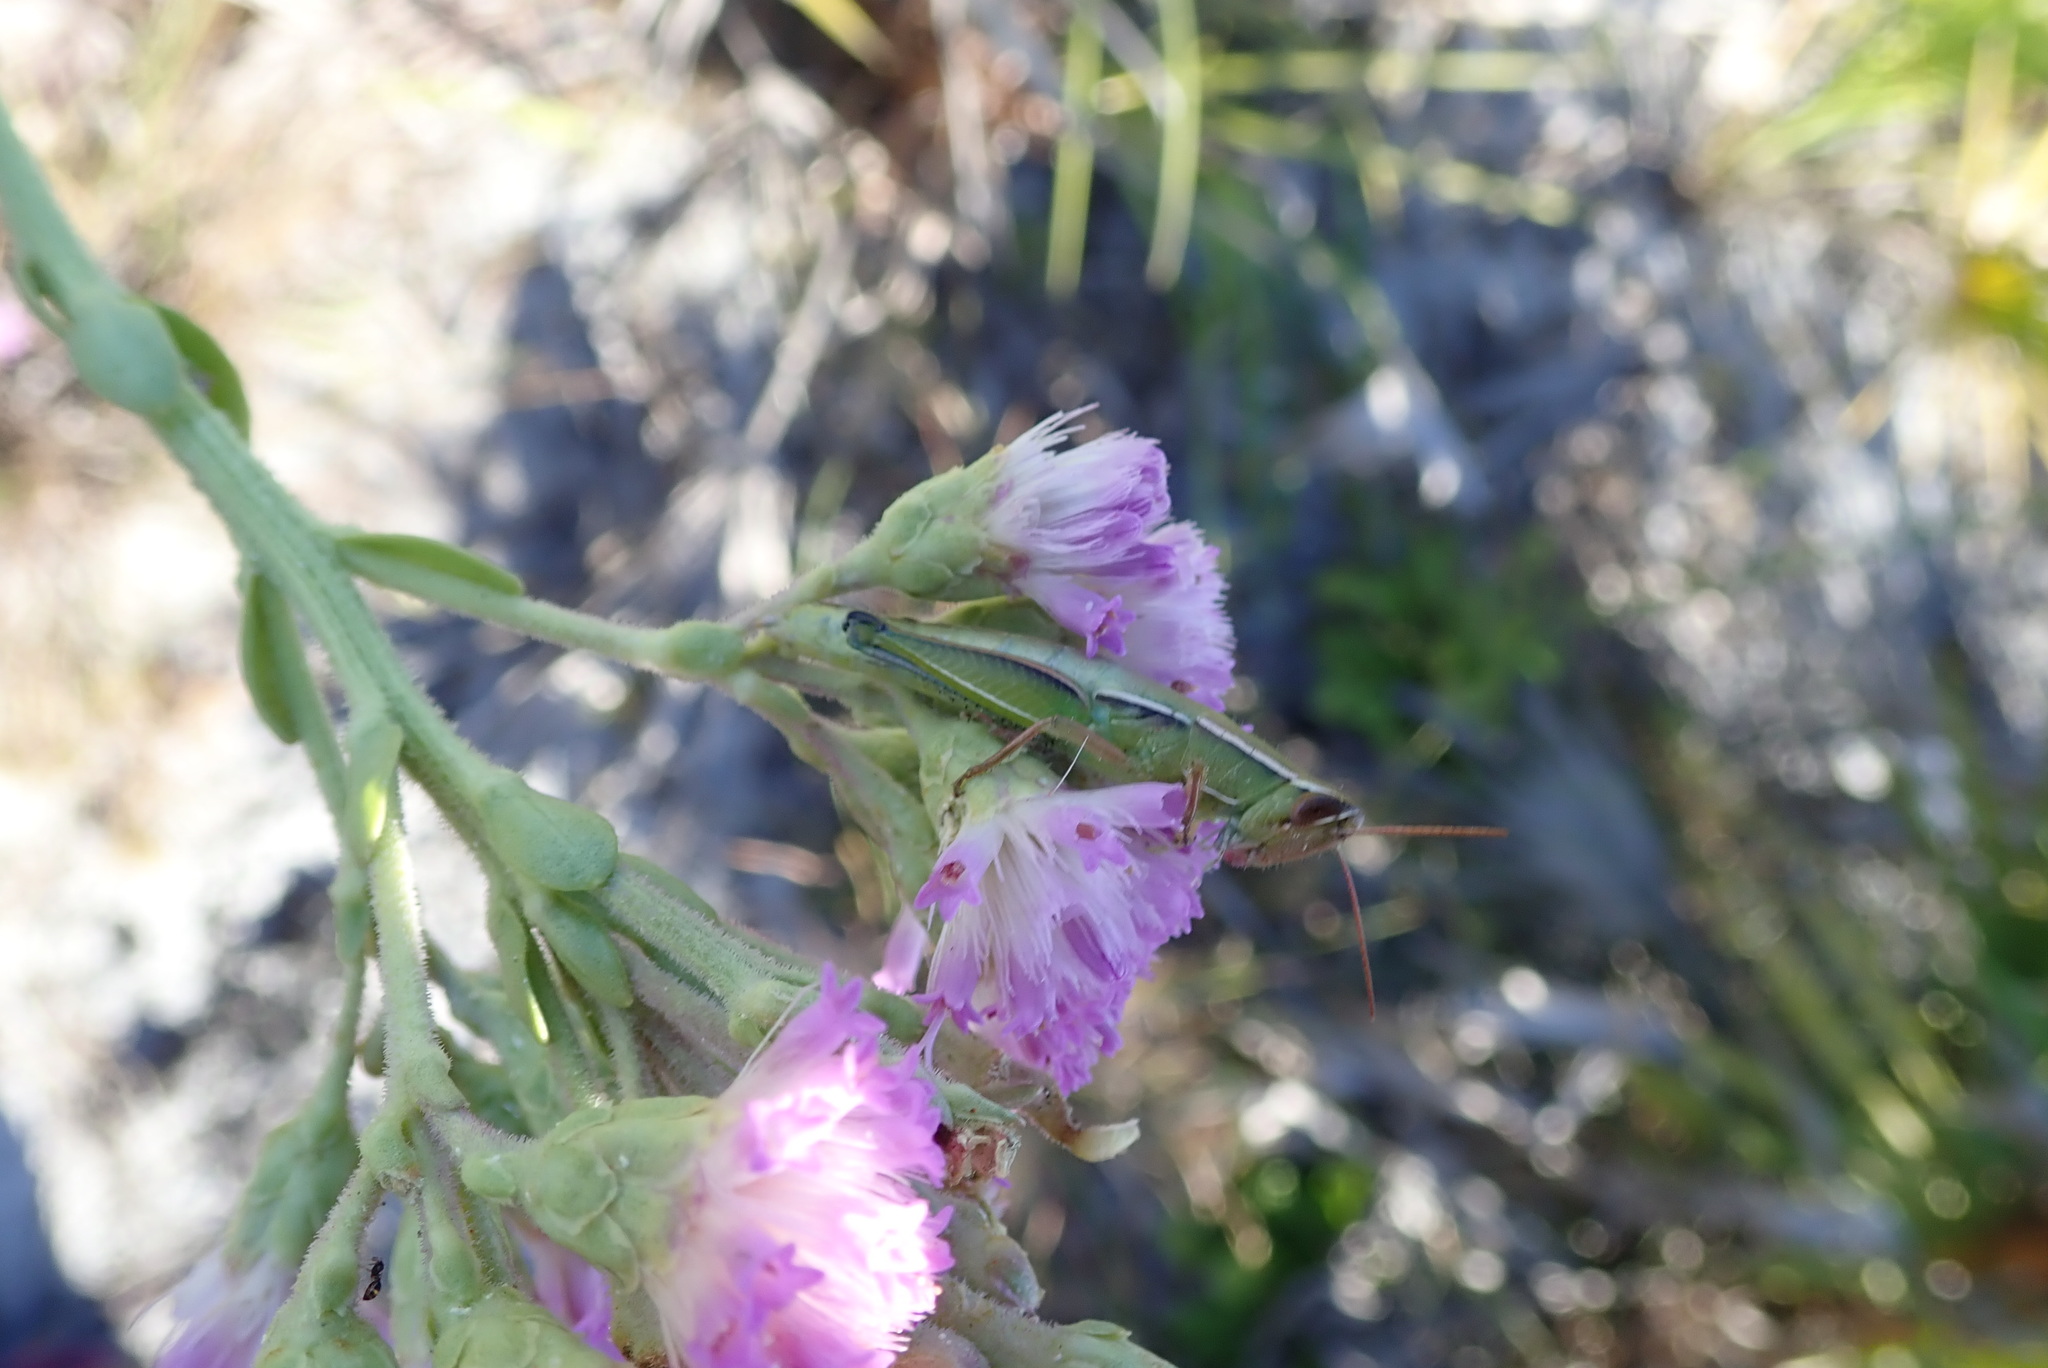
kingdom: Animalia
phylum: Arthropoda
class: Insecta
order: Orthoptera
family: Acrididae
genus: Aptenopedes
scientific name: Aptenopedes sphenarioides
